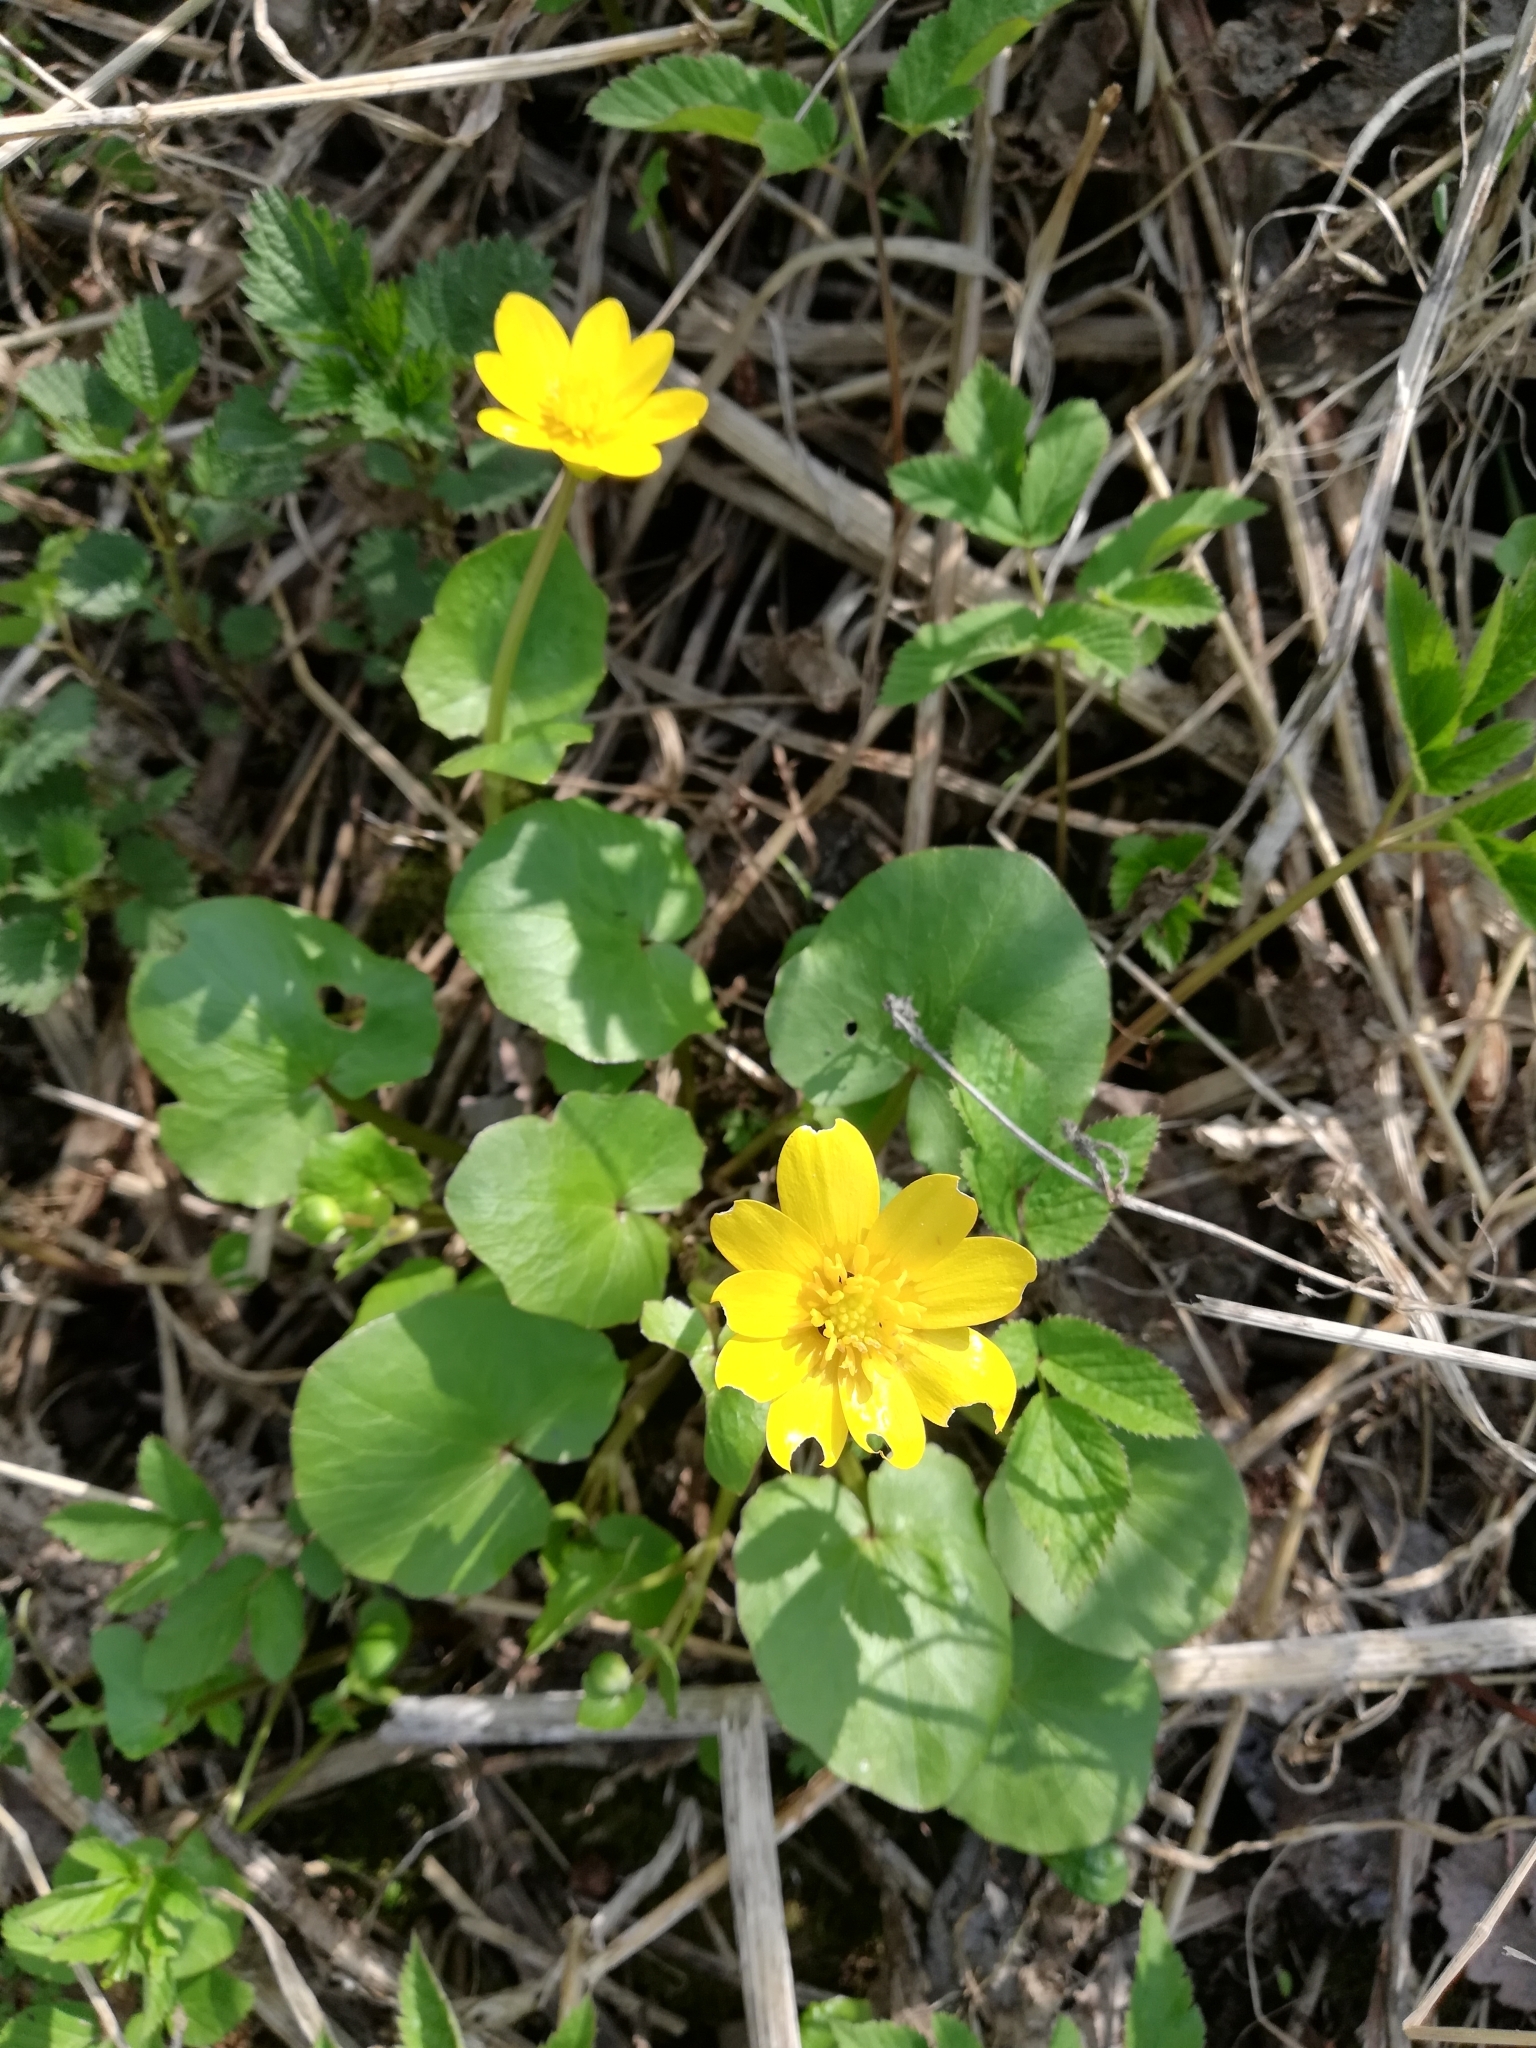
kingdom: Plantae
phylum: Tracheophyta
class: Magnoliopsida
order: Ranunculales
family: Ranunculaceae
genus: Ficaria
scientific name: Ficaria verna
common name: Lesser celandine
